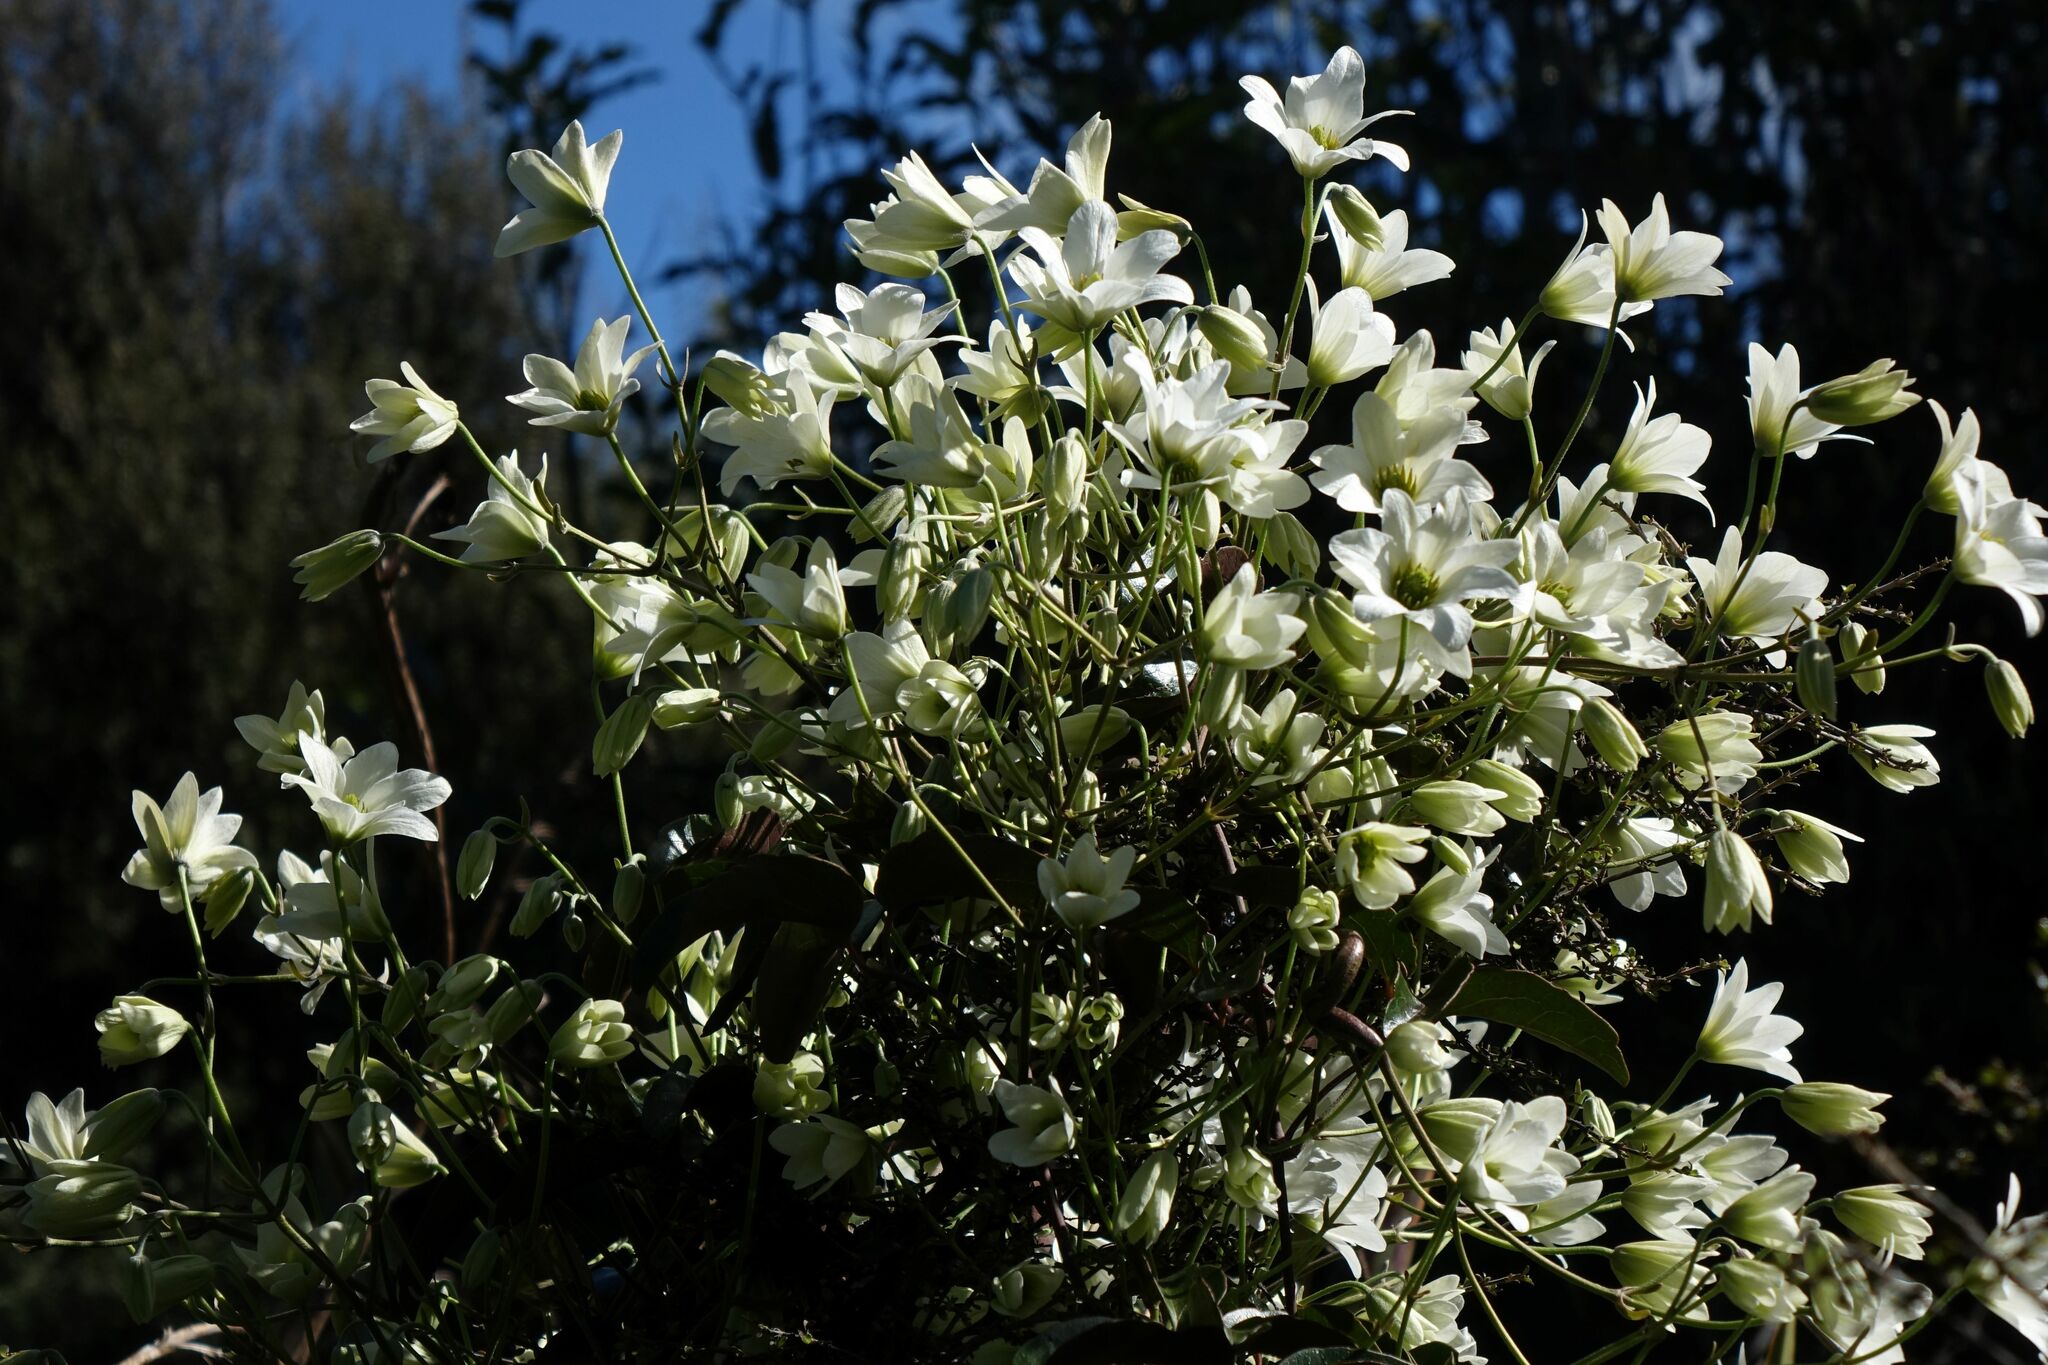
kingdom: Plantae
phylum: Tracheophyta
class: Magnoliopsida
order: Ranunculales
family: Ranunculaceae
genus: Clematis
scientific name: Clematis paniculata
